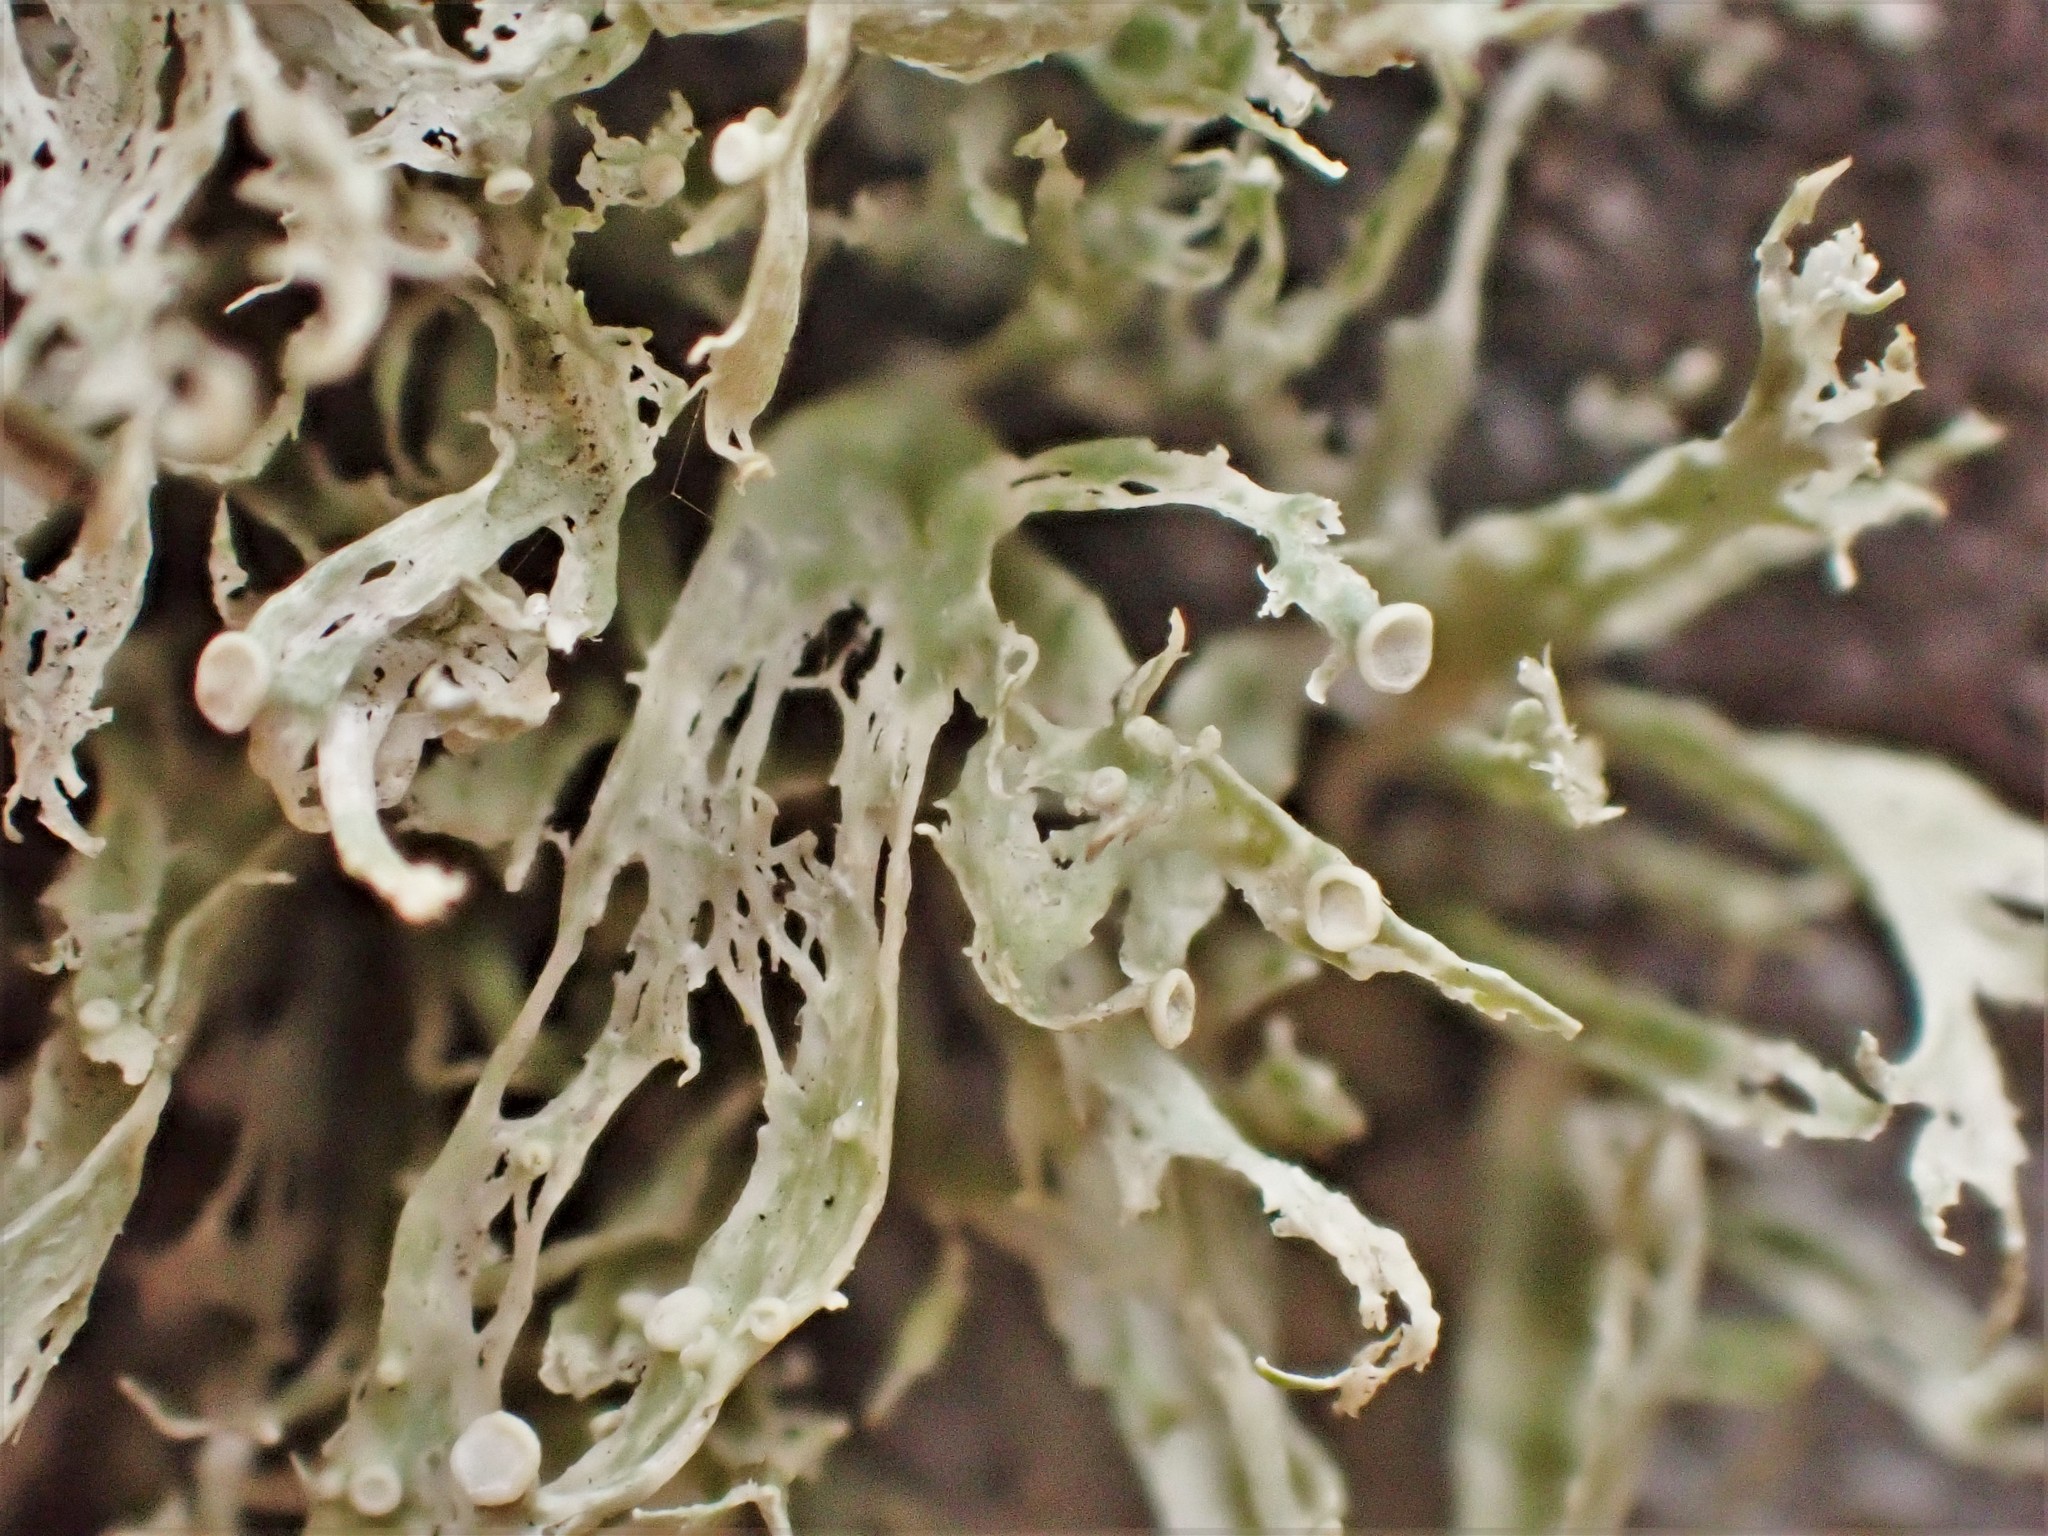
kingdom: Fungi
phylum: Ascomycota
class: Lecanoromycetes
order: Lecanorales
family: Ramalinaceae
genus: Ramalina
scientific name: Ramalina celastri
